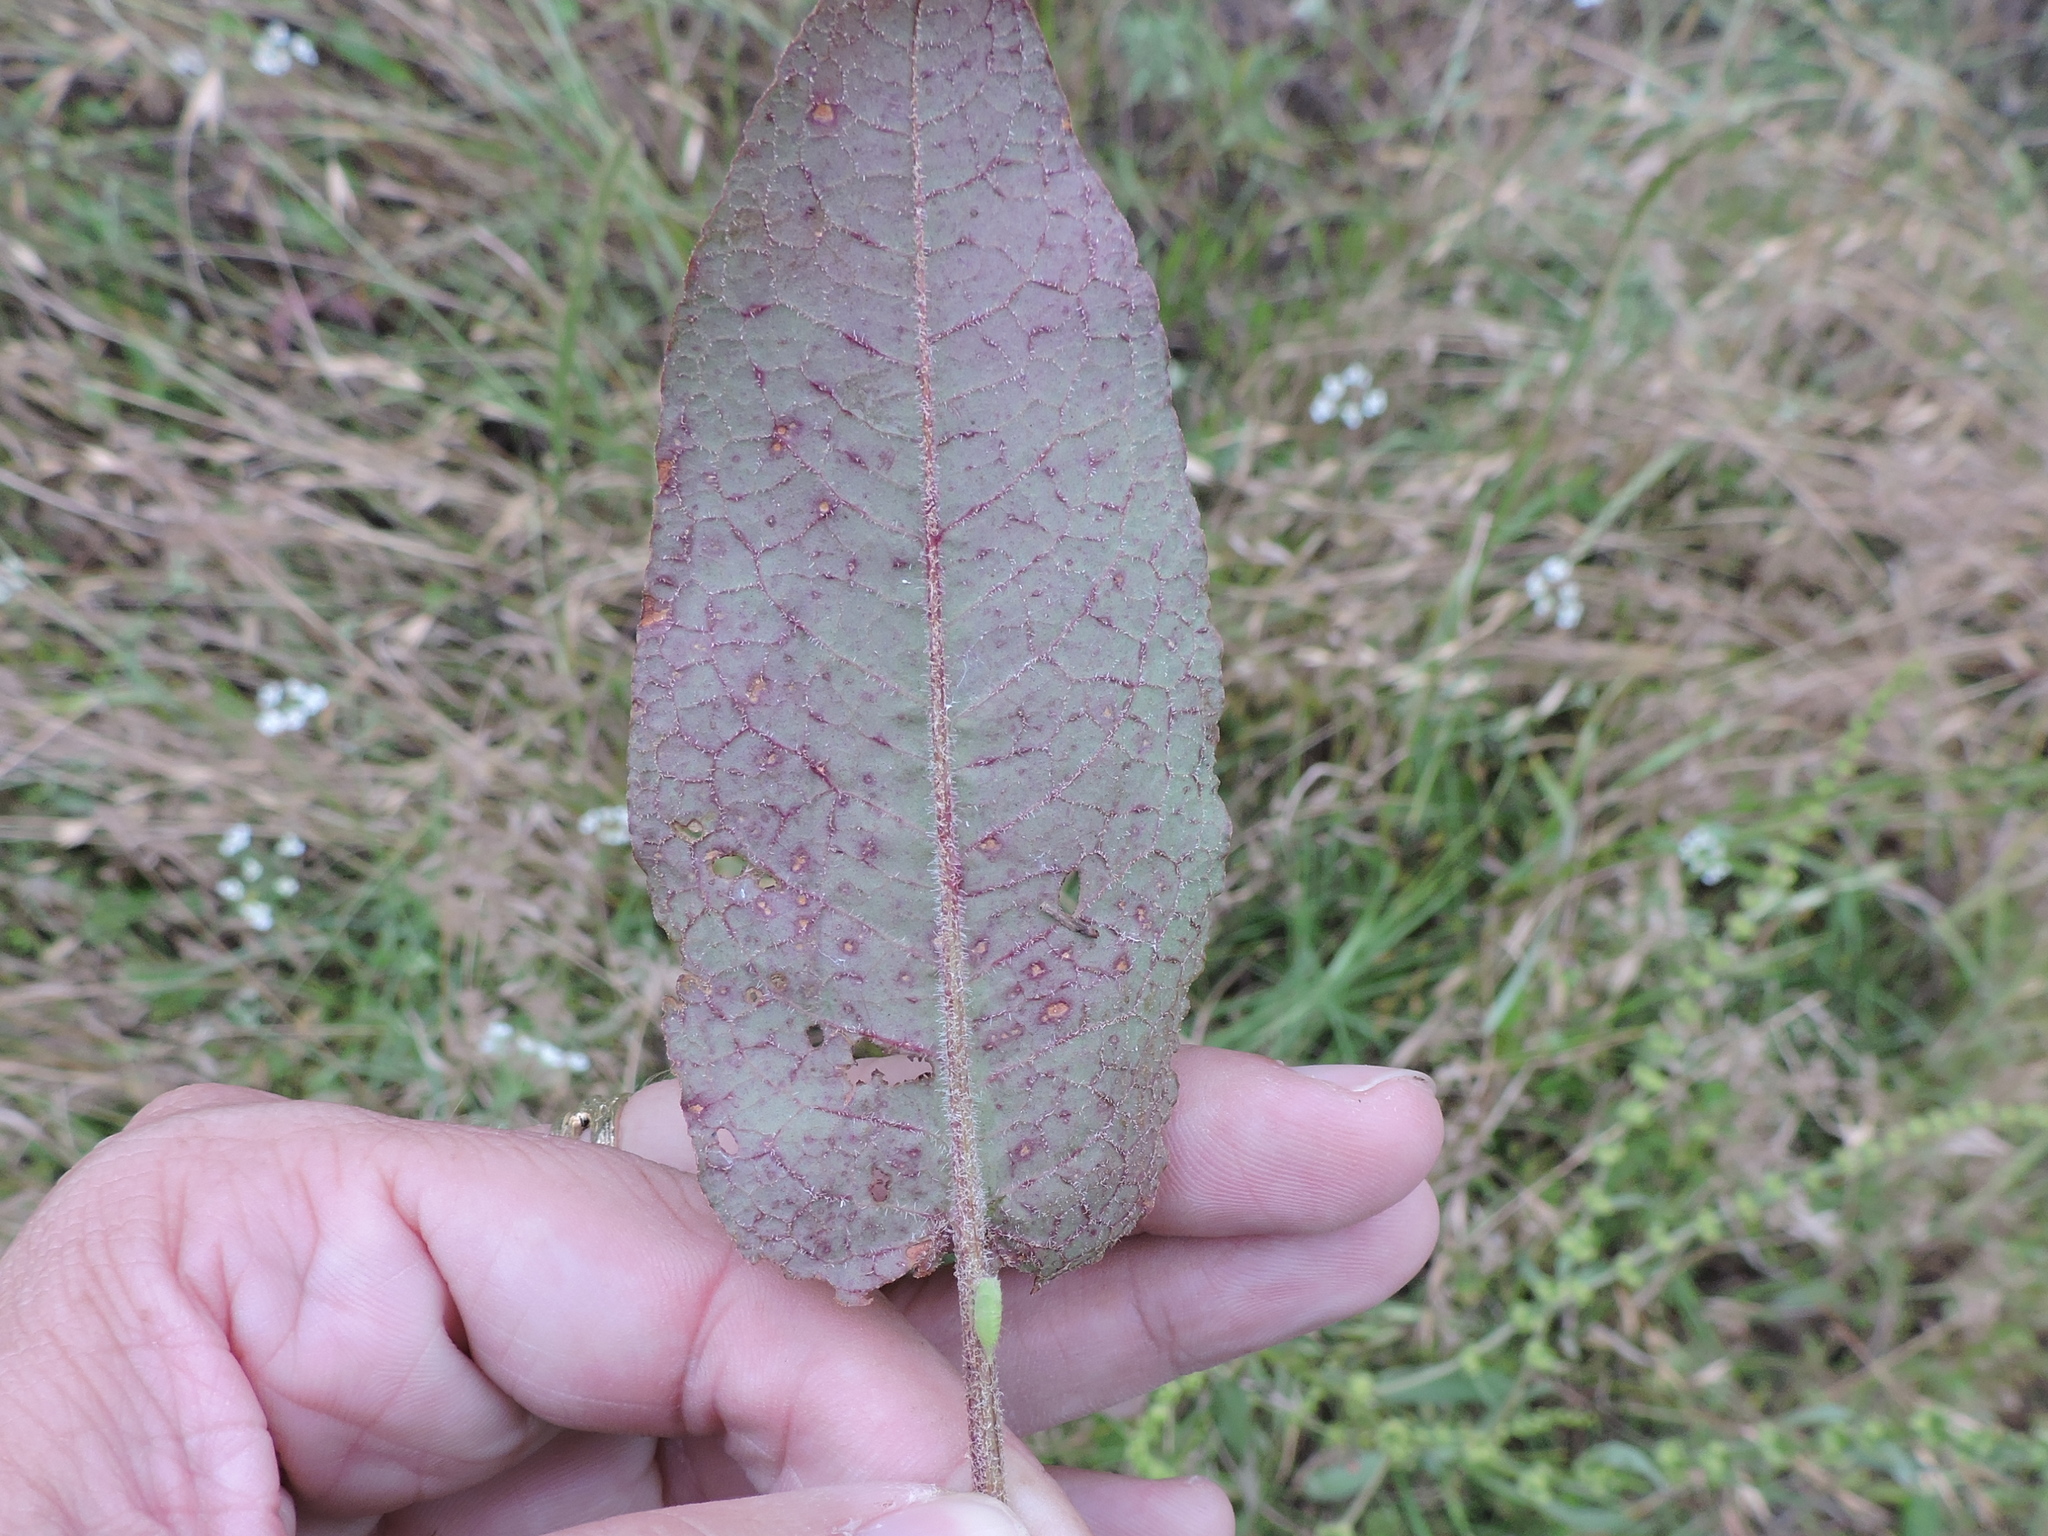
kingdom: Plantae
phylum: Tracheophyta
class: Magnoliopsida
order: Caryophyllales
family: Polygonaceae
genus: Rumex
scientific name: Rumex pulcher
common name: Fiddle dock
